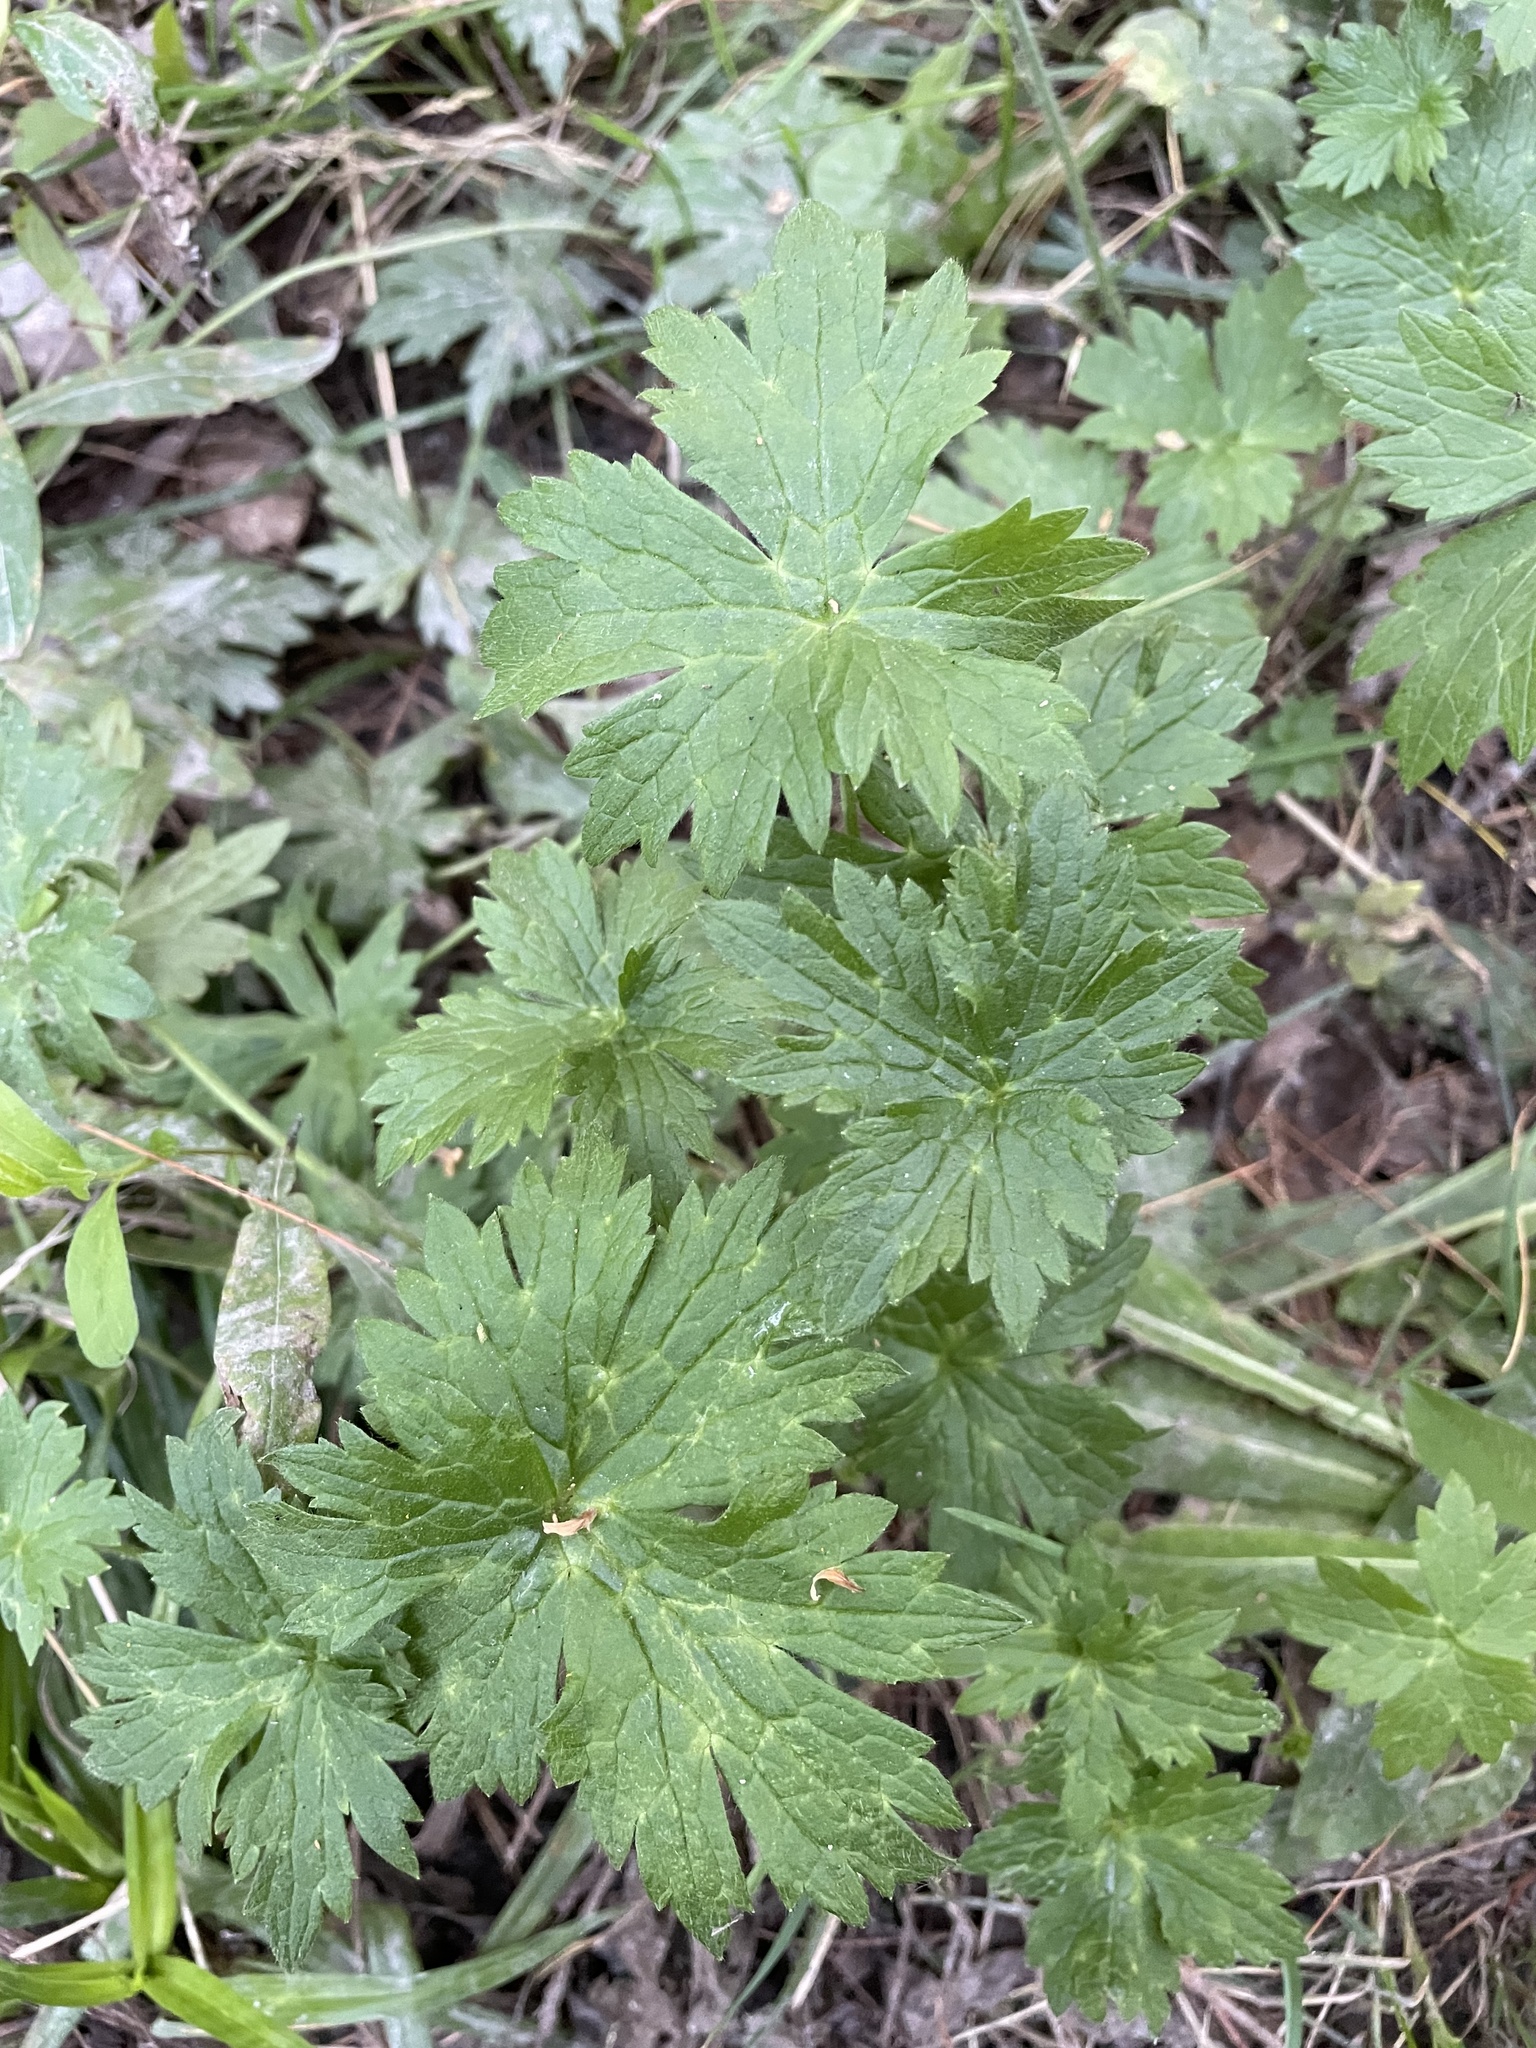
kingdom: Plantae
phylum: Tracheophyta
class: Magnoliopsida
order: Ranunculales
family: Ranunculaceae
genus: Ranunculus
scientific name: Ranunculus repens
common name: Creeping buttercup
